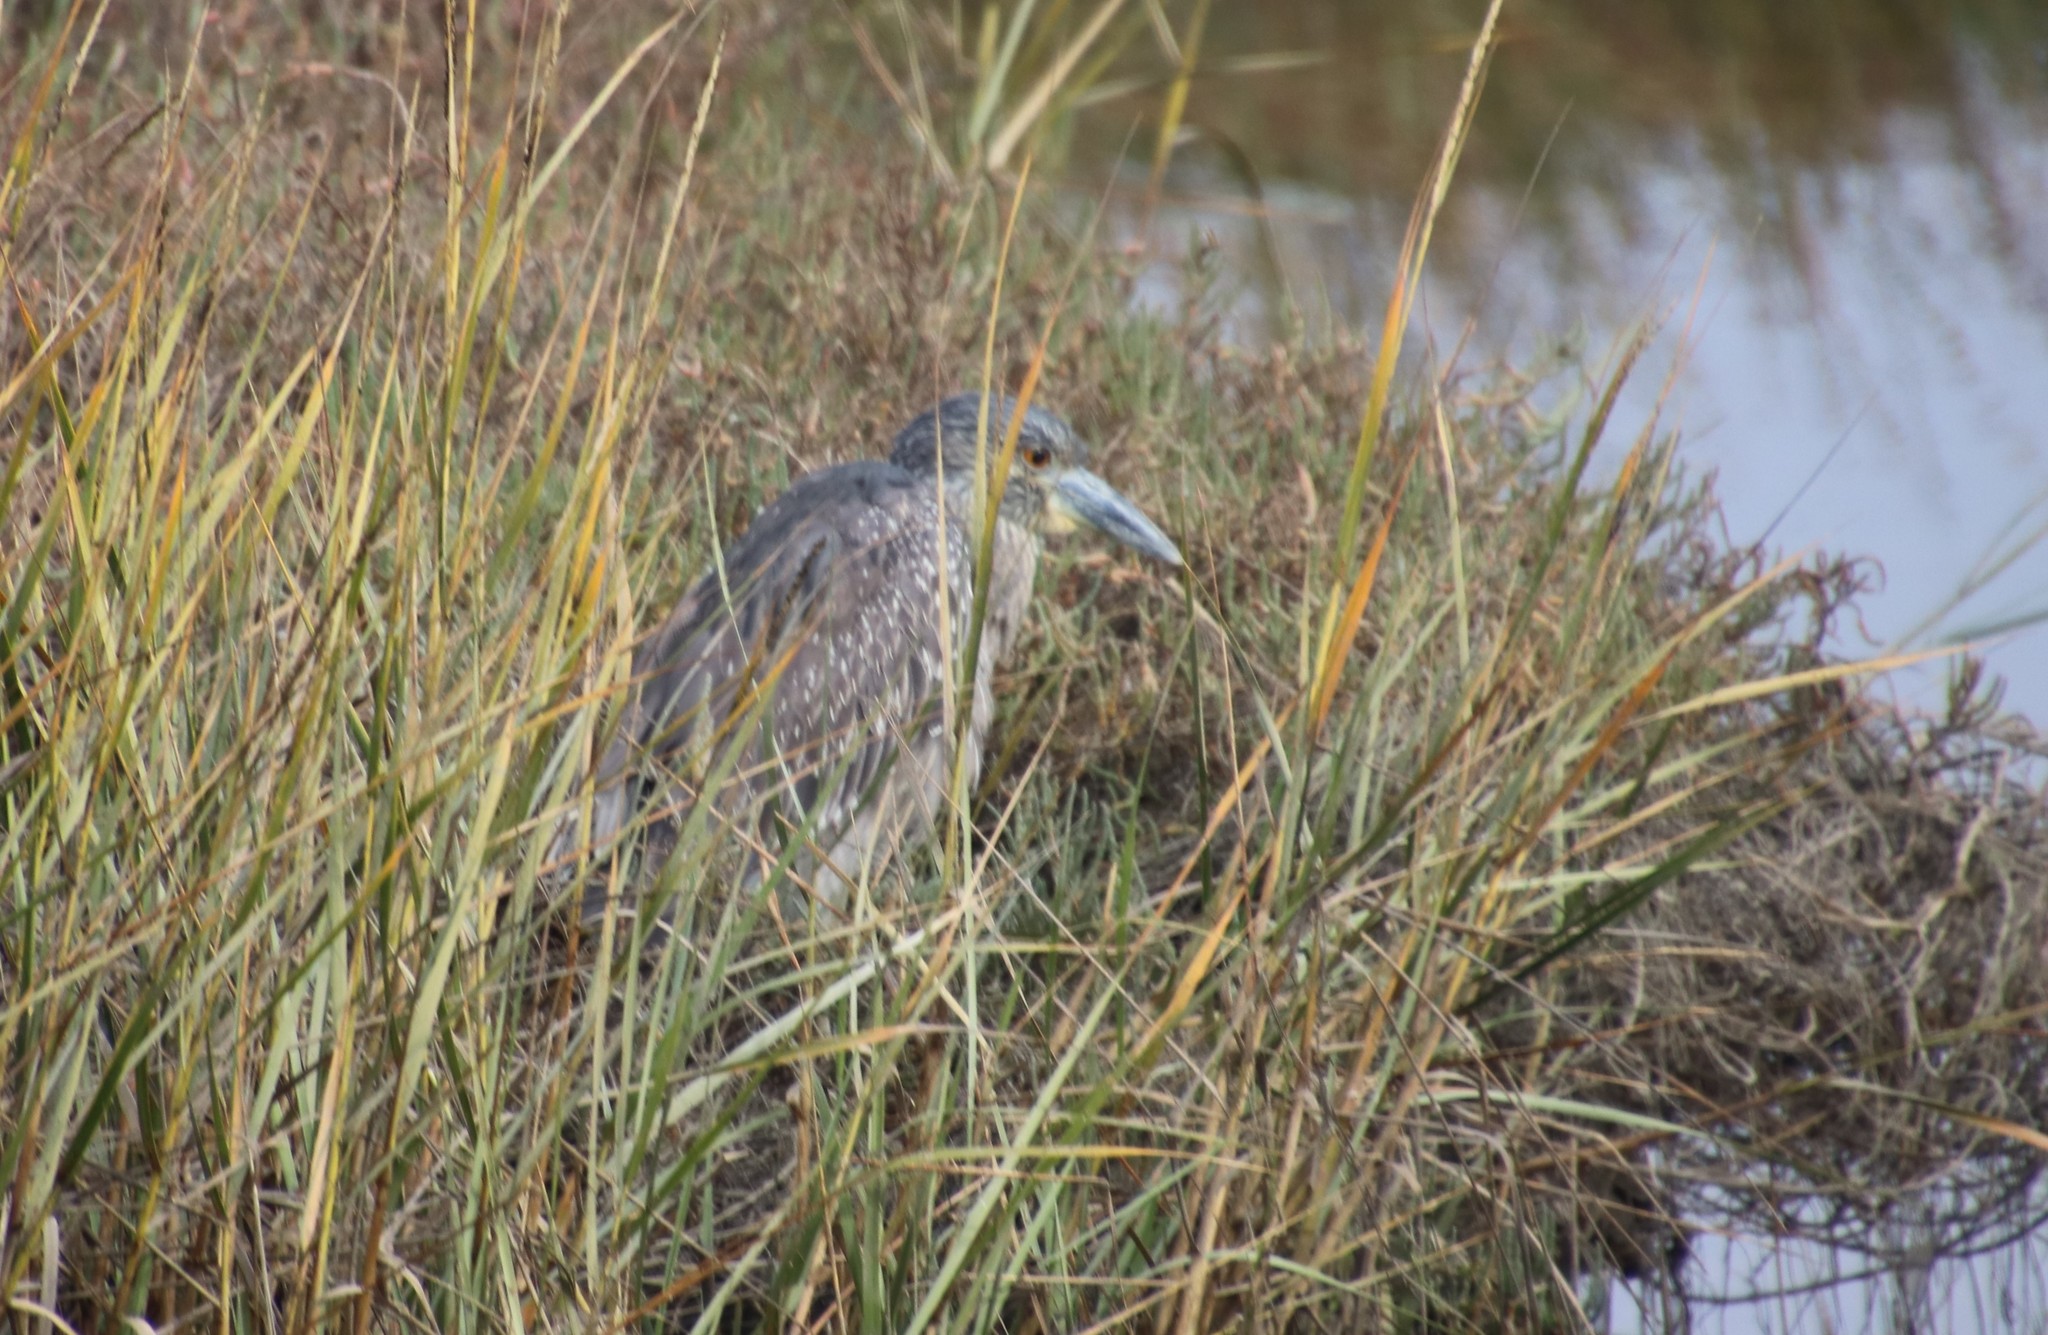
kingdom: Animalia
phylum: Chordata
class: Aves
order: Pelecaniformes
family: Ardeidae
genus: Nyctanassa
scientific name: Nyctanassa violacea
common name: Yellow-crowned night heron
